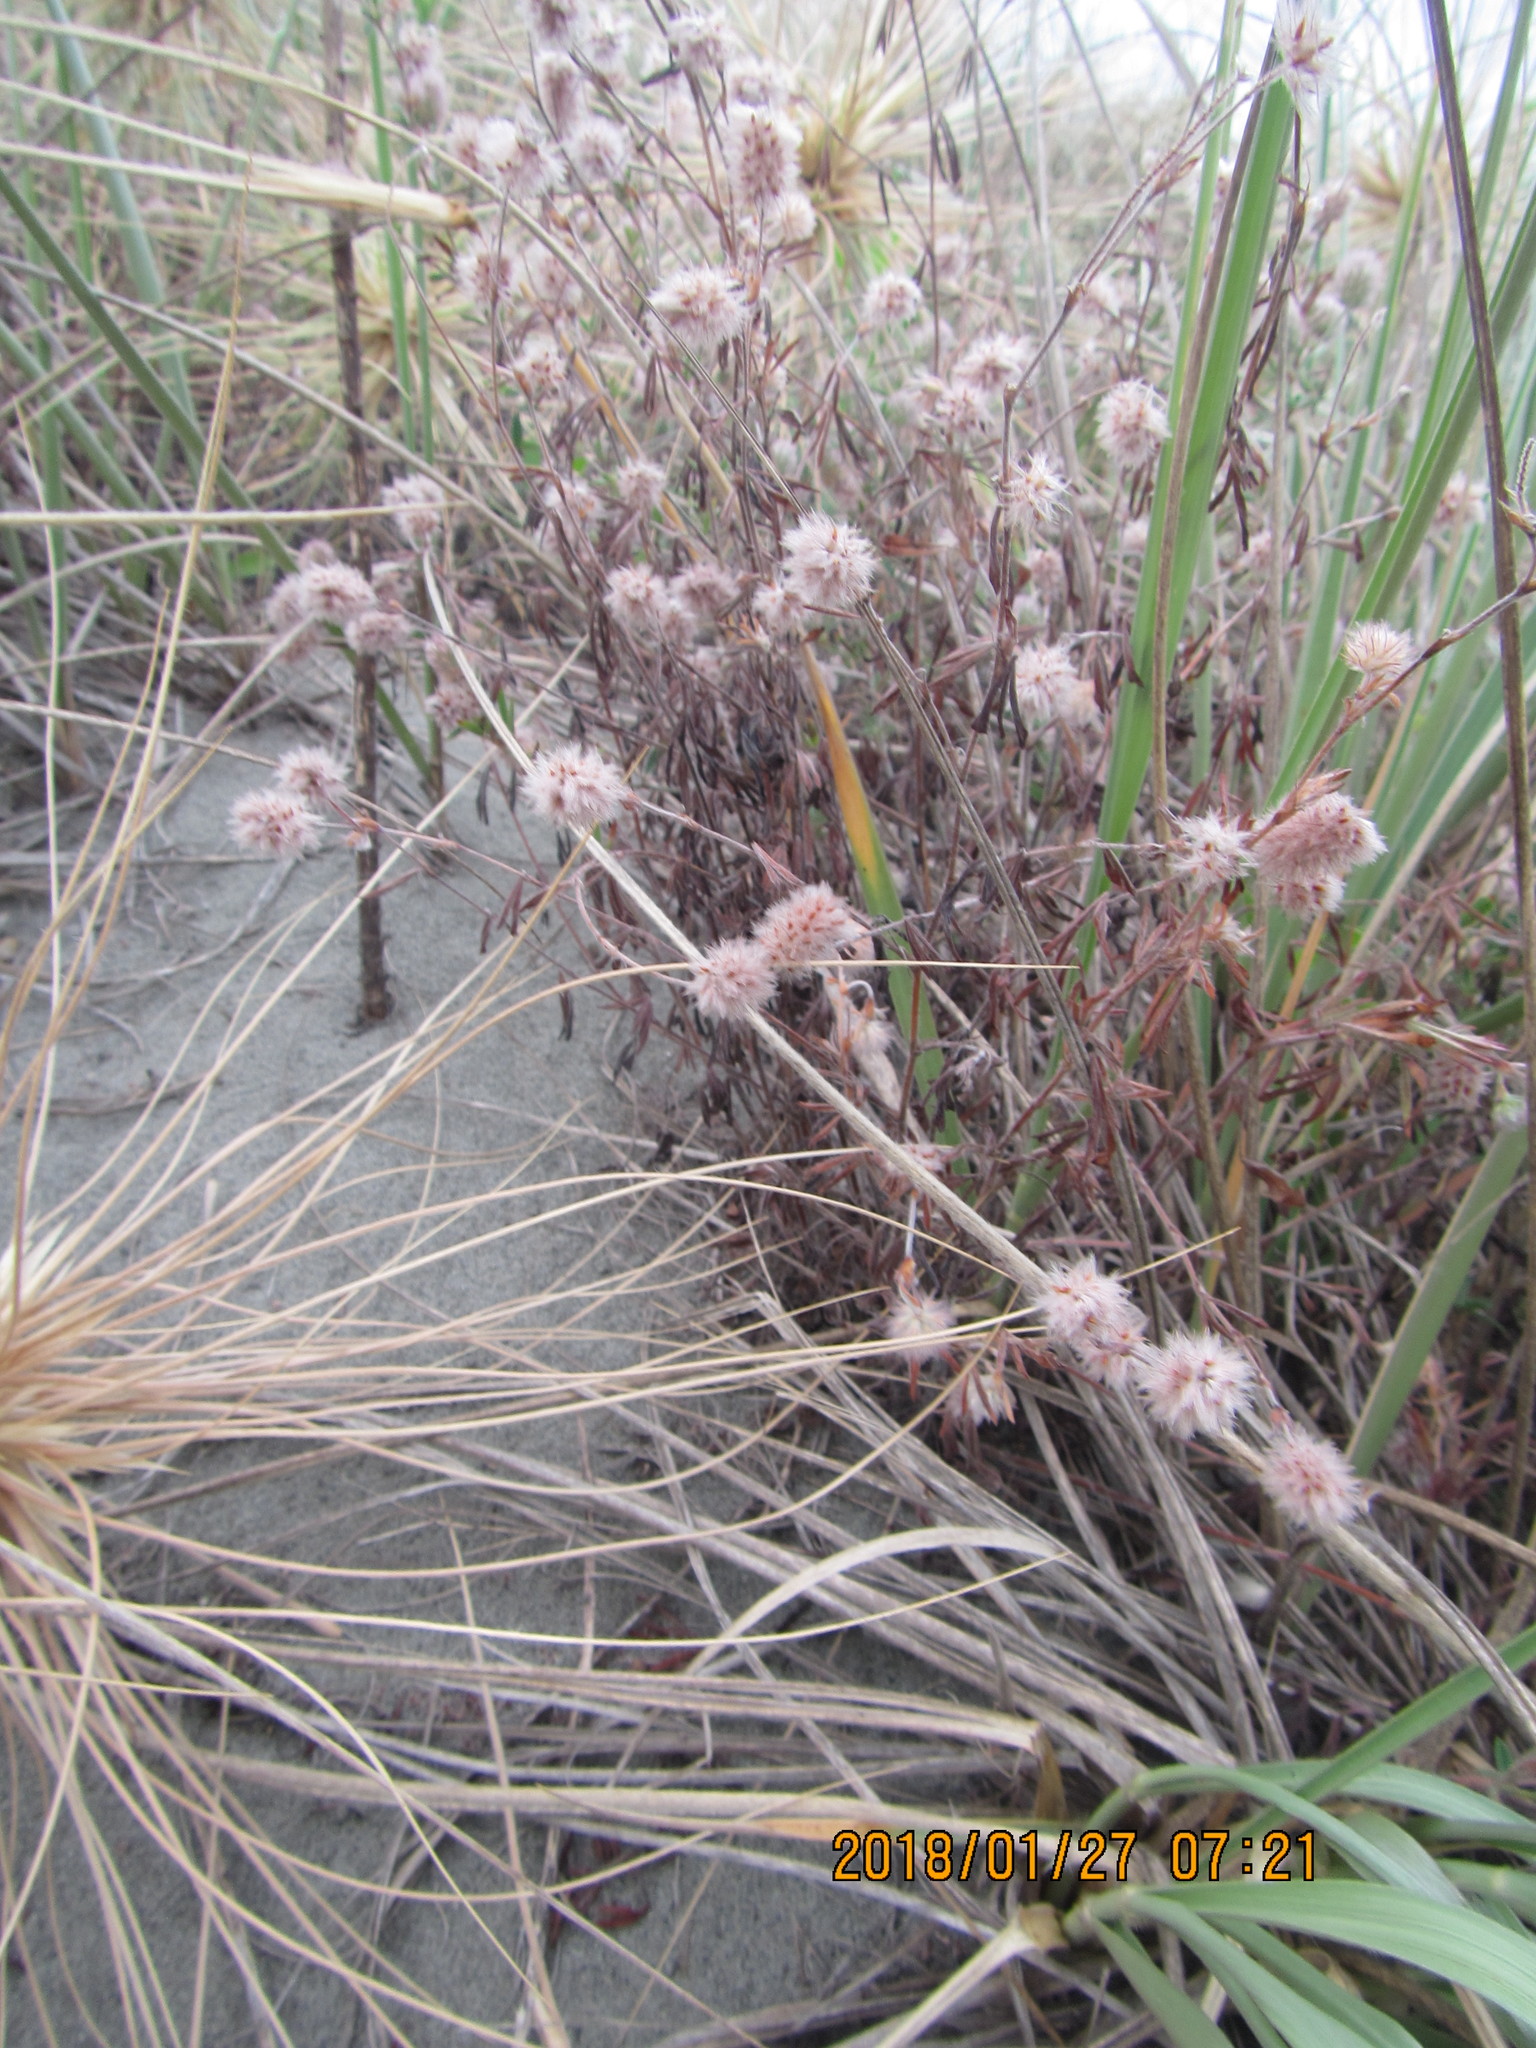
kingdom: Plantae
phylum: Tracheophyta
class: Magnoliopsida
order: Fabales
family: Fabaceae
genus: Trifolium
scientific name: Trifolium arvense
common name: Hare's-foot clover
